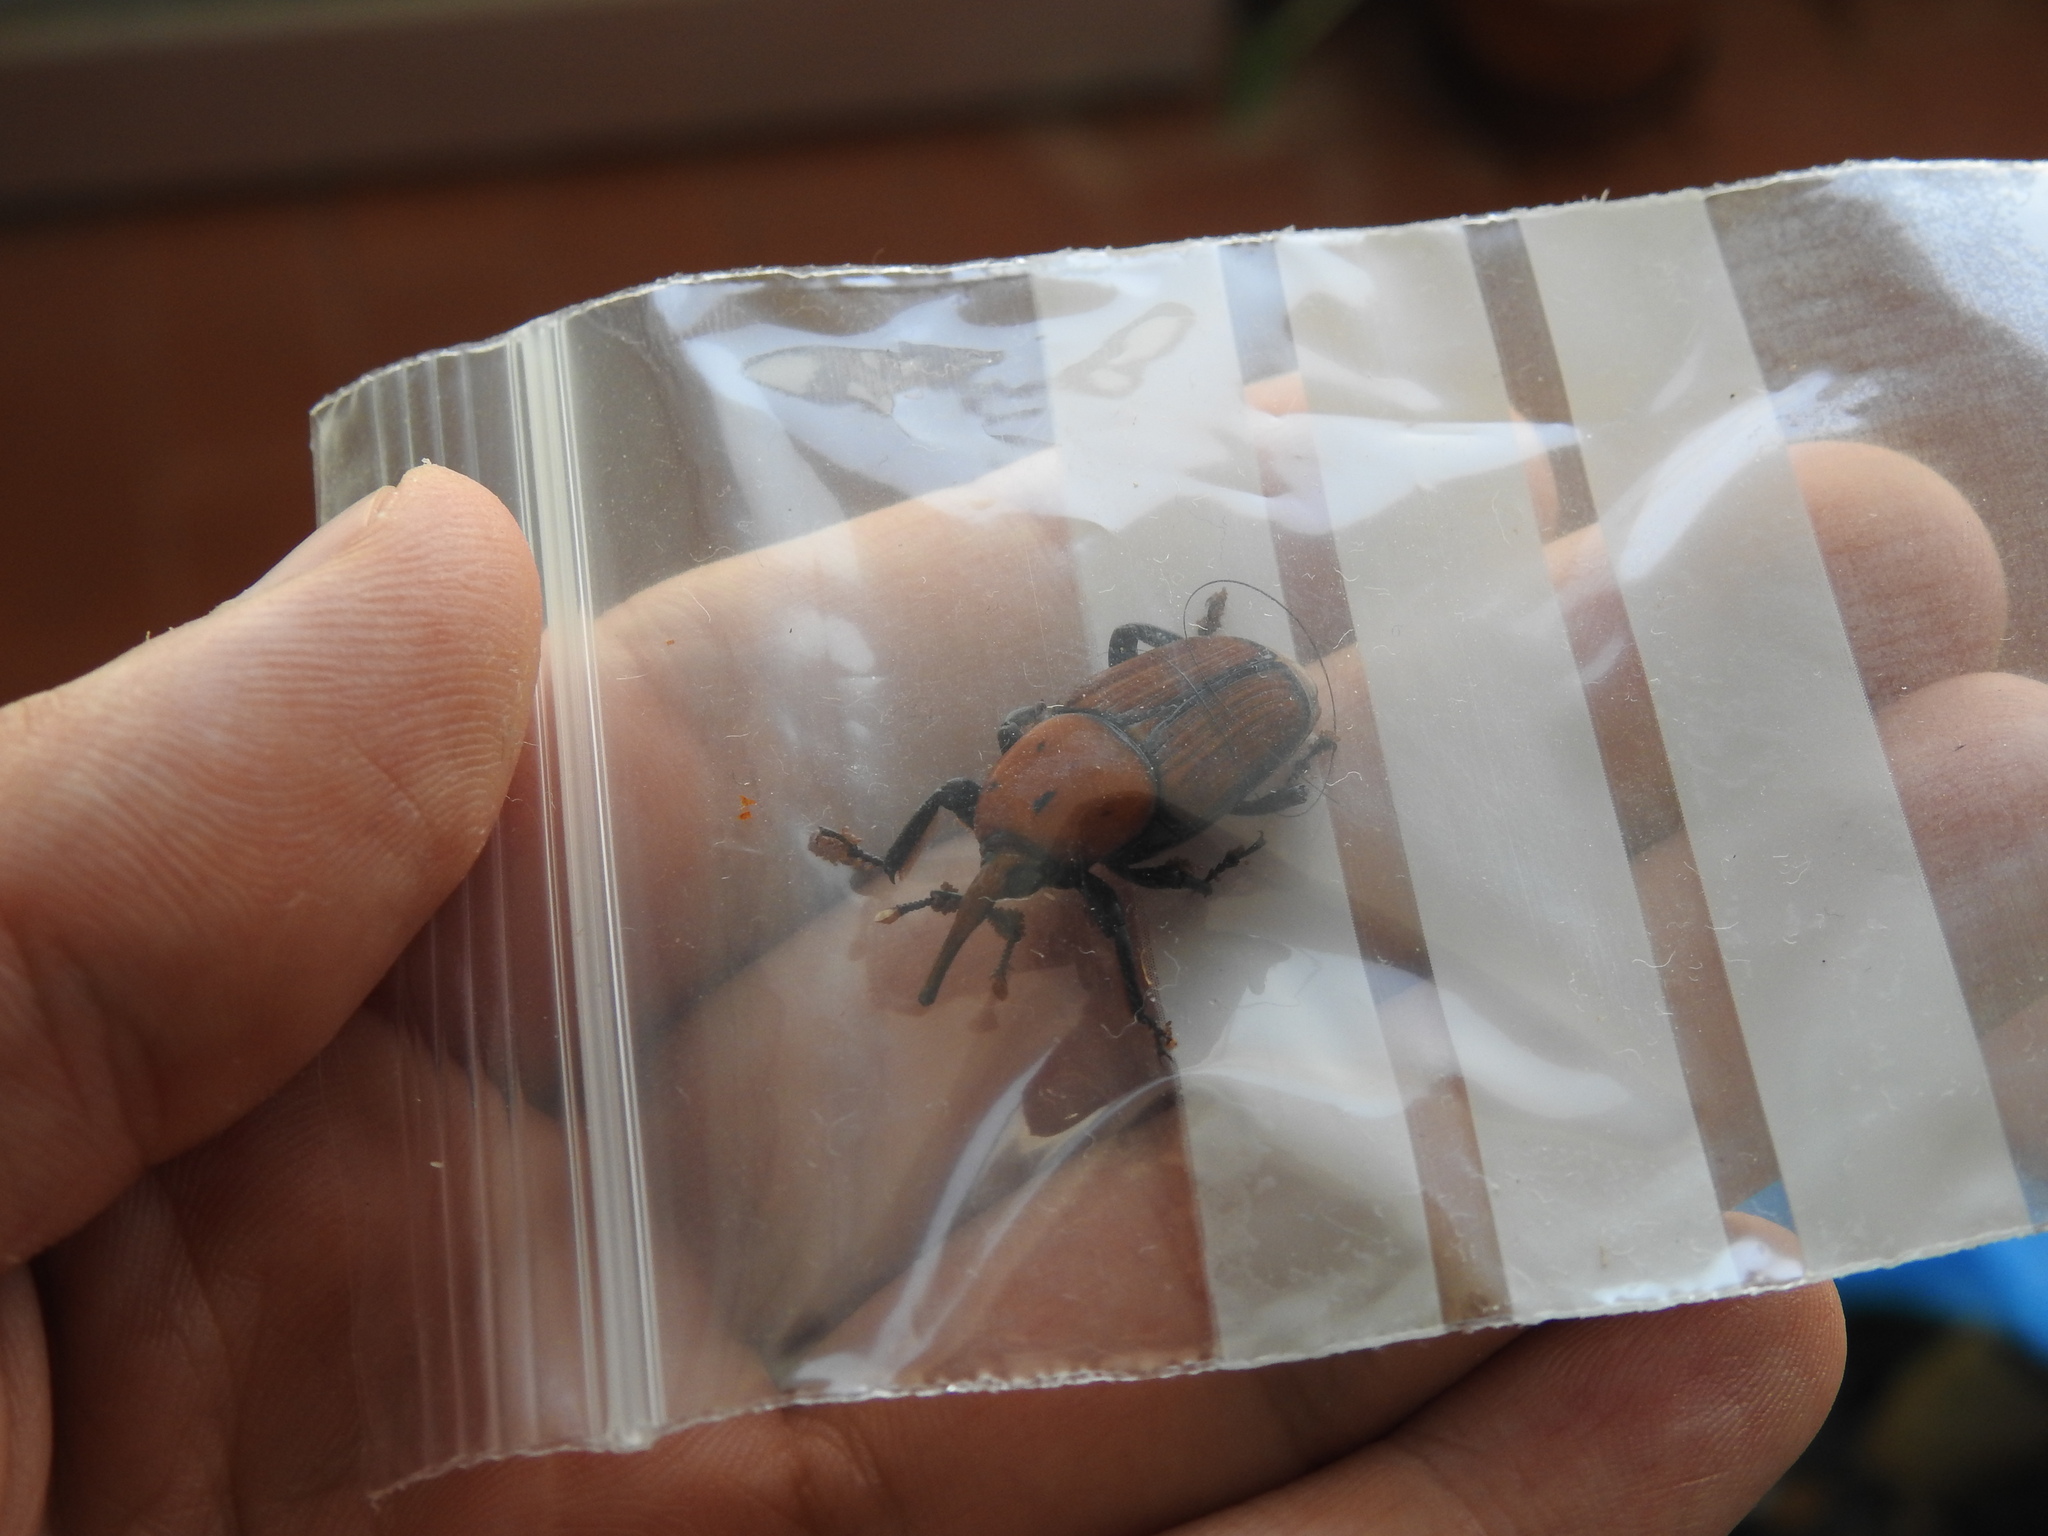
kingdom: Animalia
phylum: Arthropoda
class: Insecta
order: Coleoptera
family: Dryophthoridae
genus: Rhynchophorus
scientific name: Rhynchophorus ferrugineus
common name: Red palm weevil
